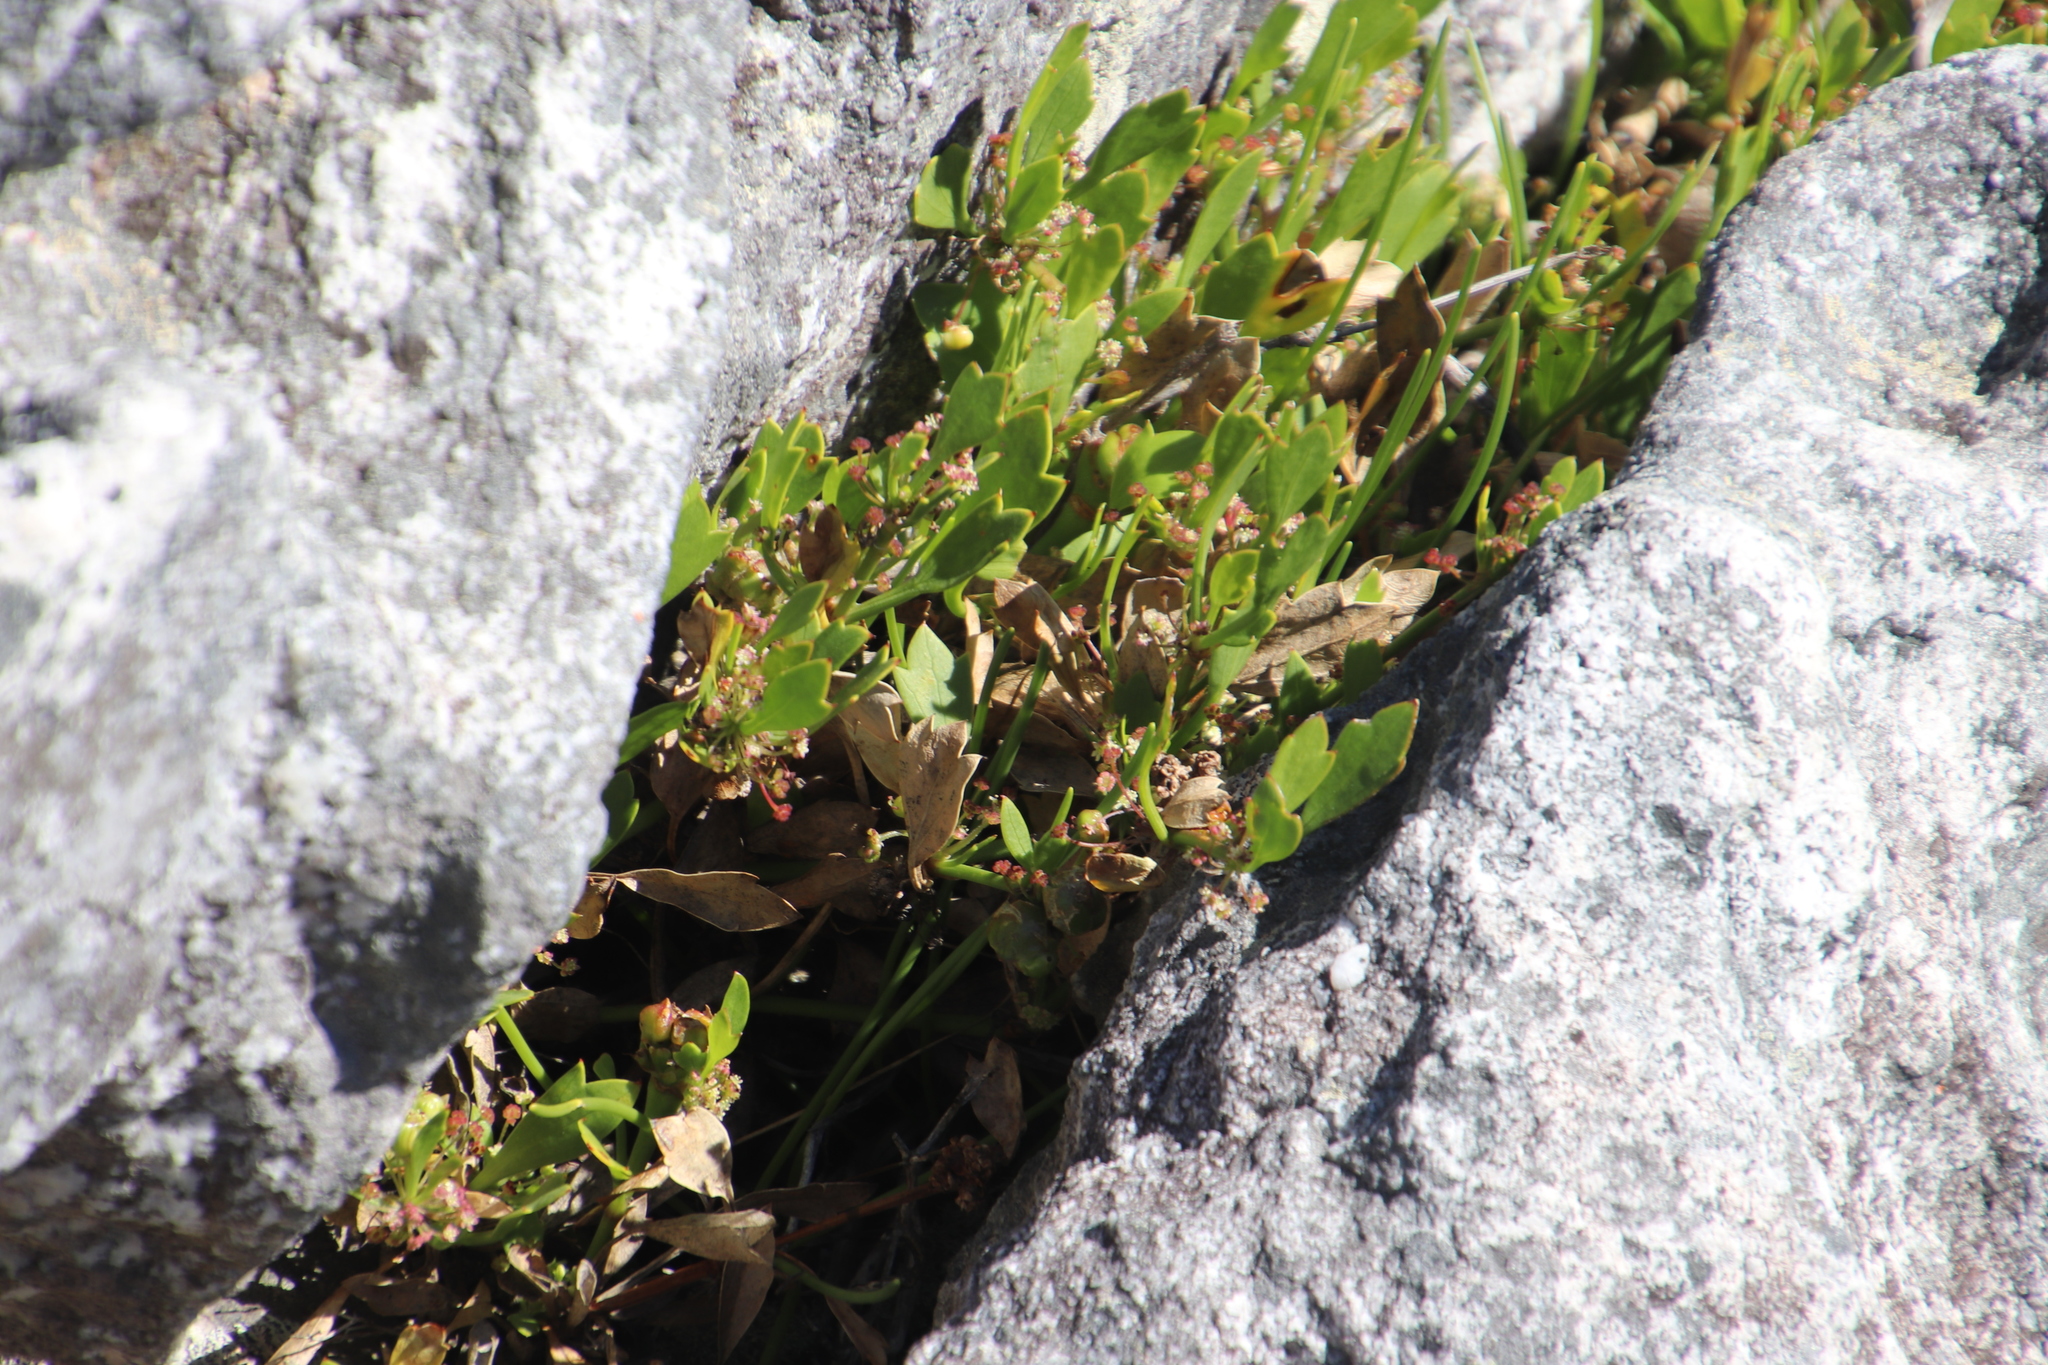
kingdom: Plantae
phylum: Tracheophyta
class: Magnoliopsida
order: Apiales
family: Apiaceae
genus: Centella
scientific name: Centella triloba
